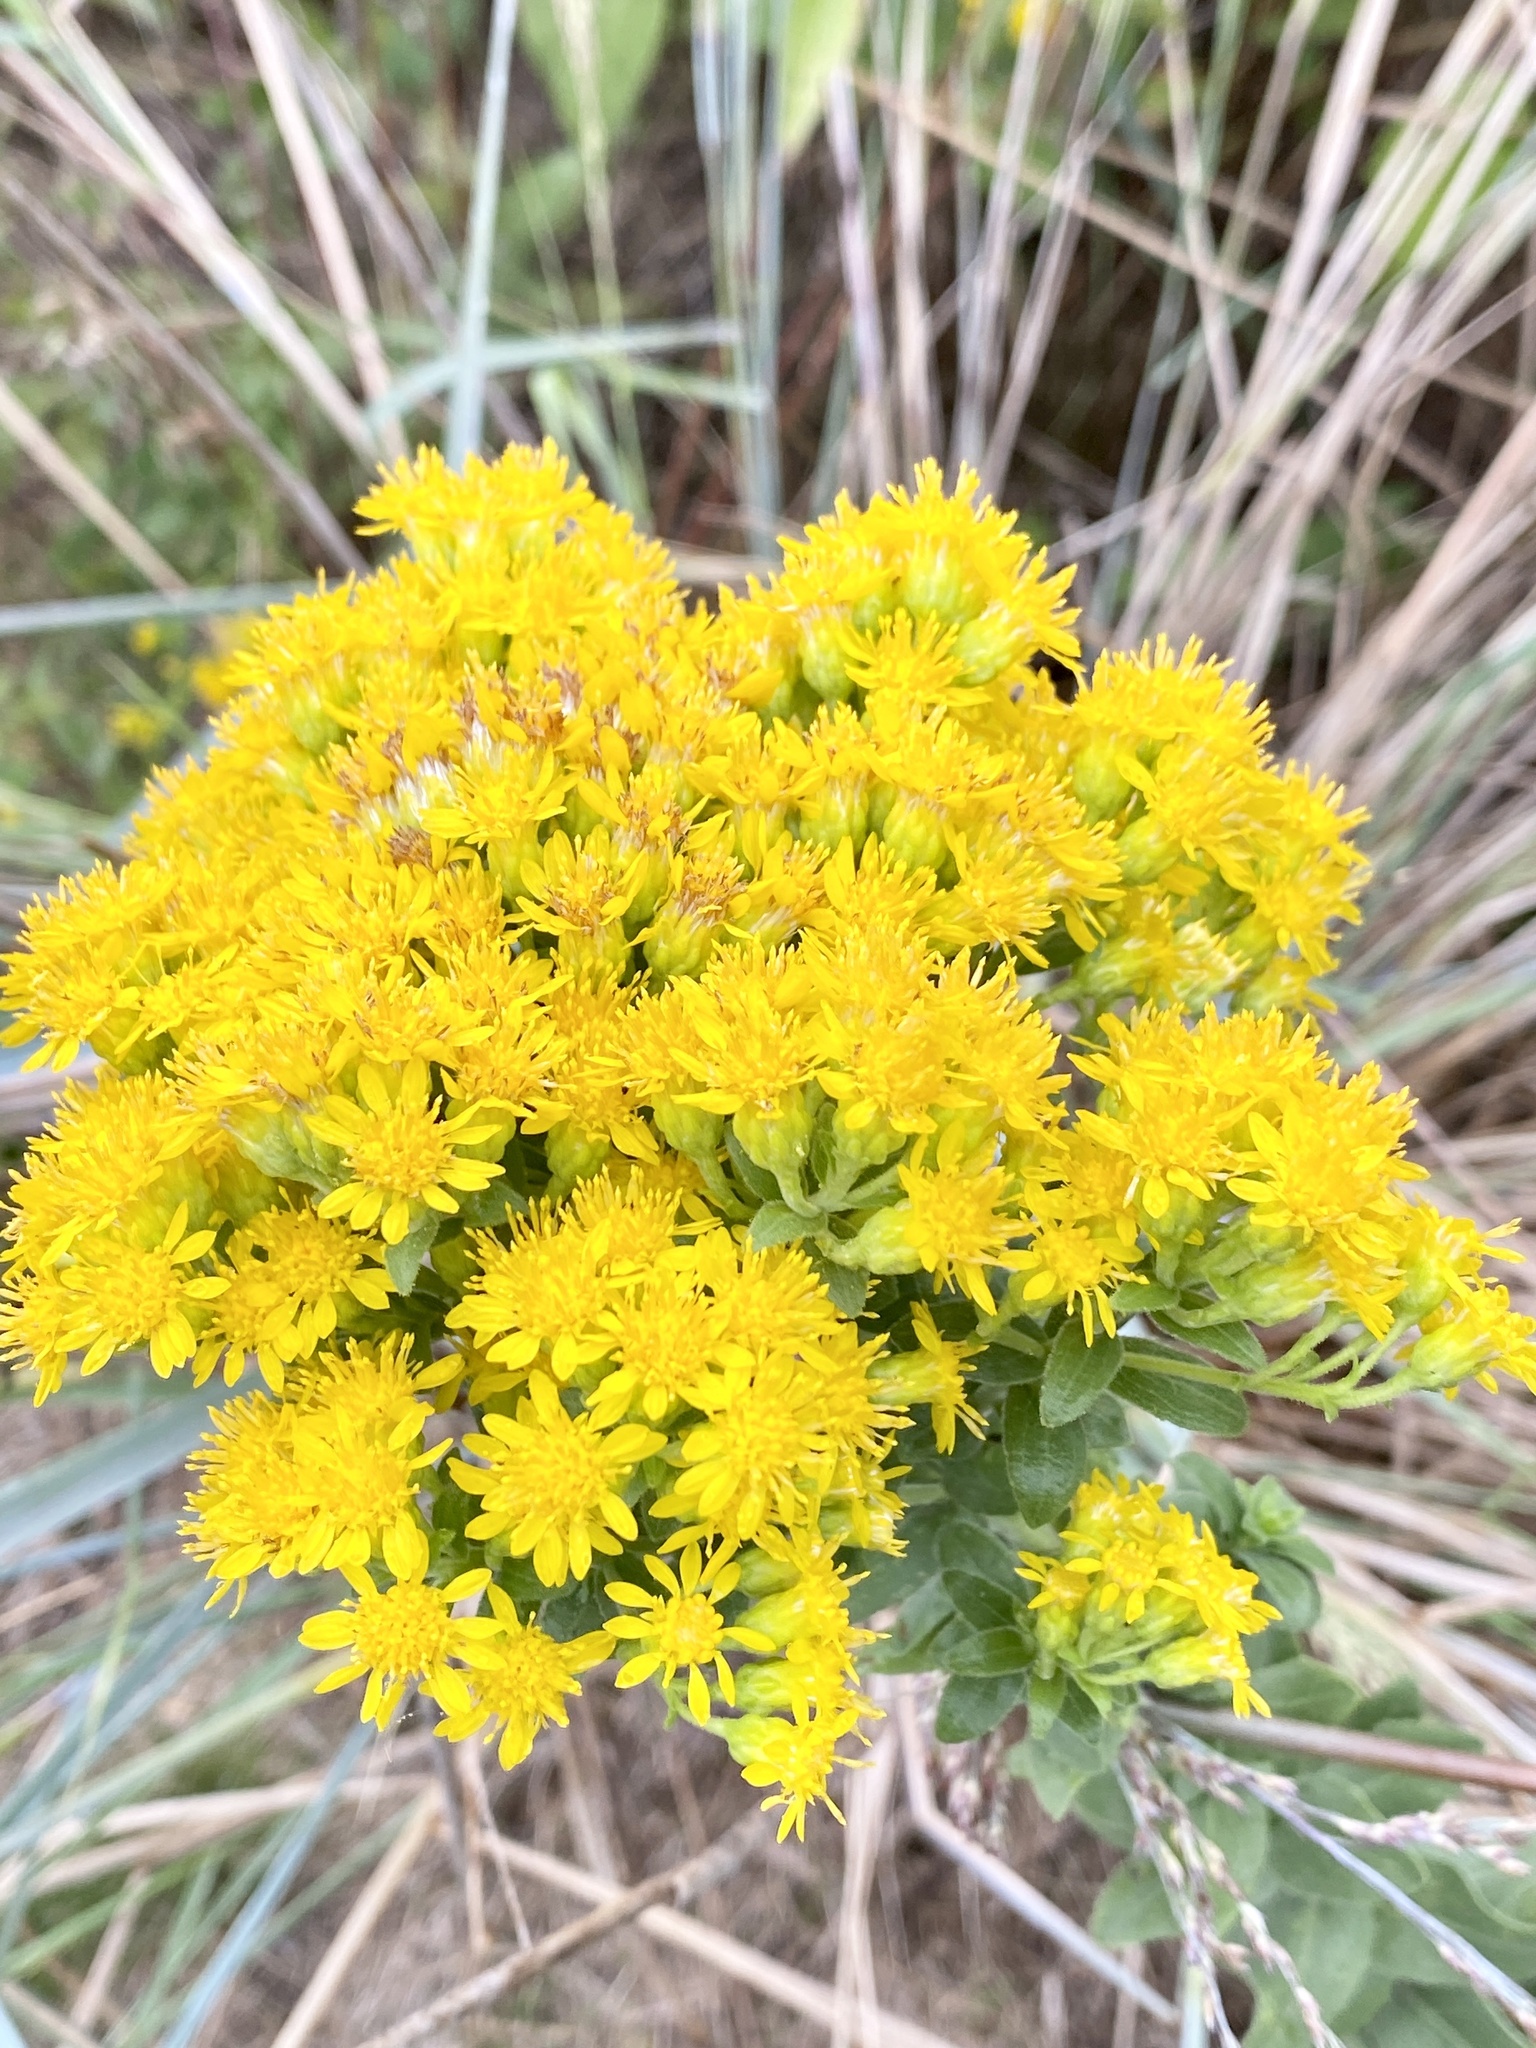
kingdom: Plantae
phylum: Tracheophyta
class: Magnoliopsida
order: Asterales
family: Asteraceae
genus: Solidago
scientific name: Solidago rigida
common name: Rigid goldenrod
